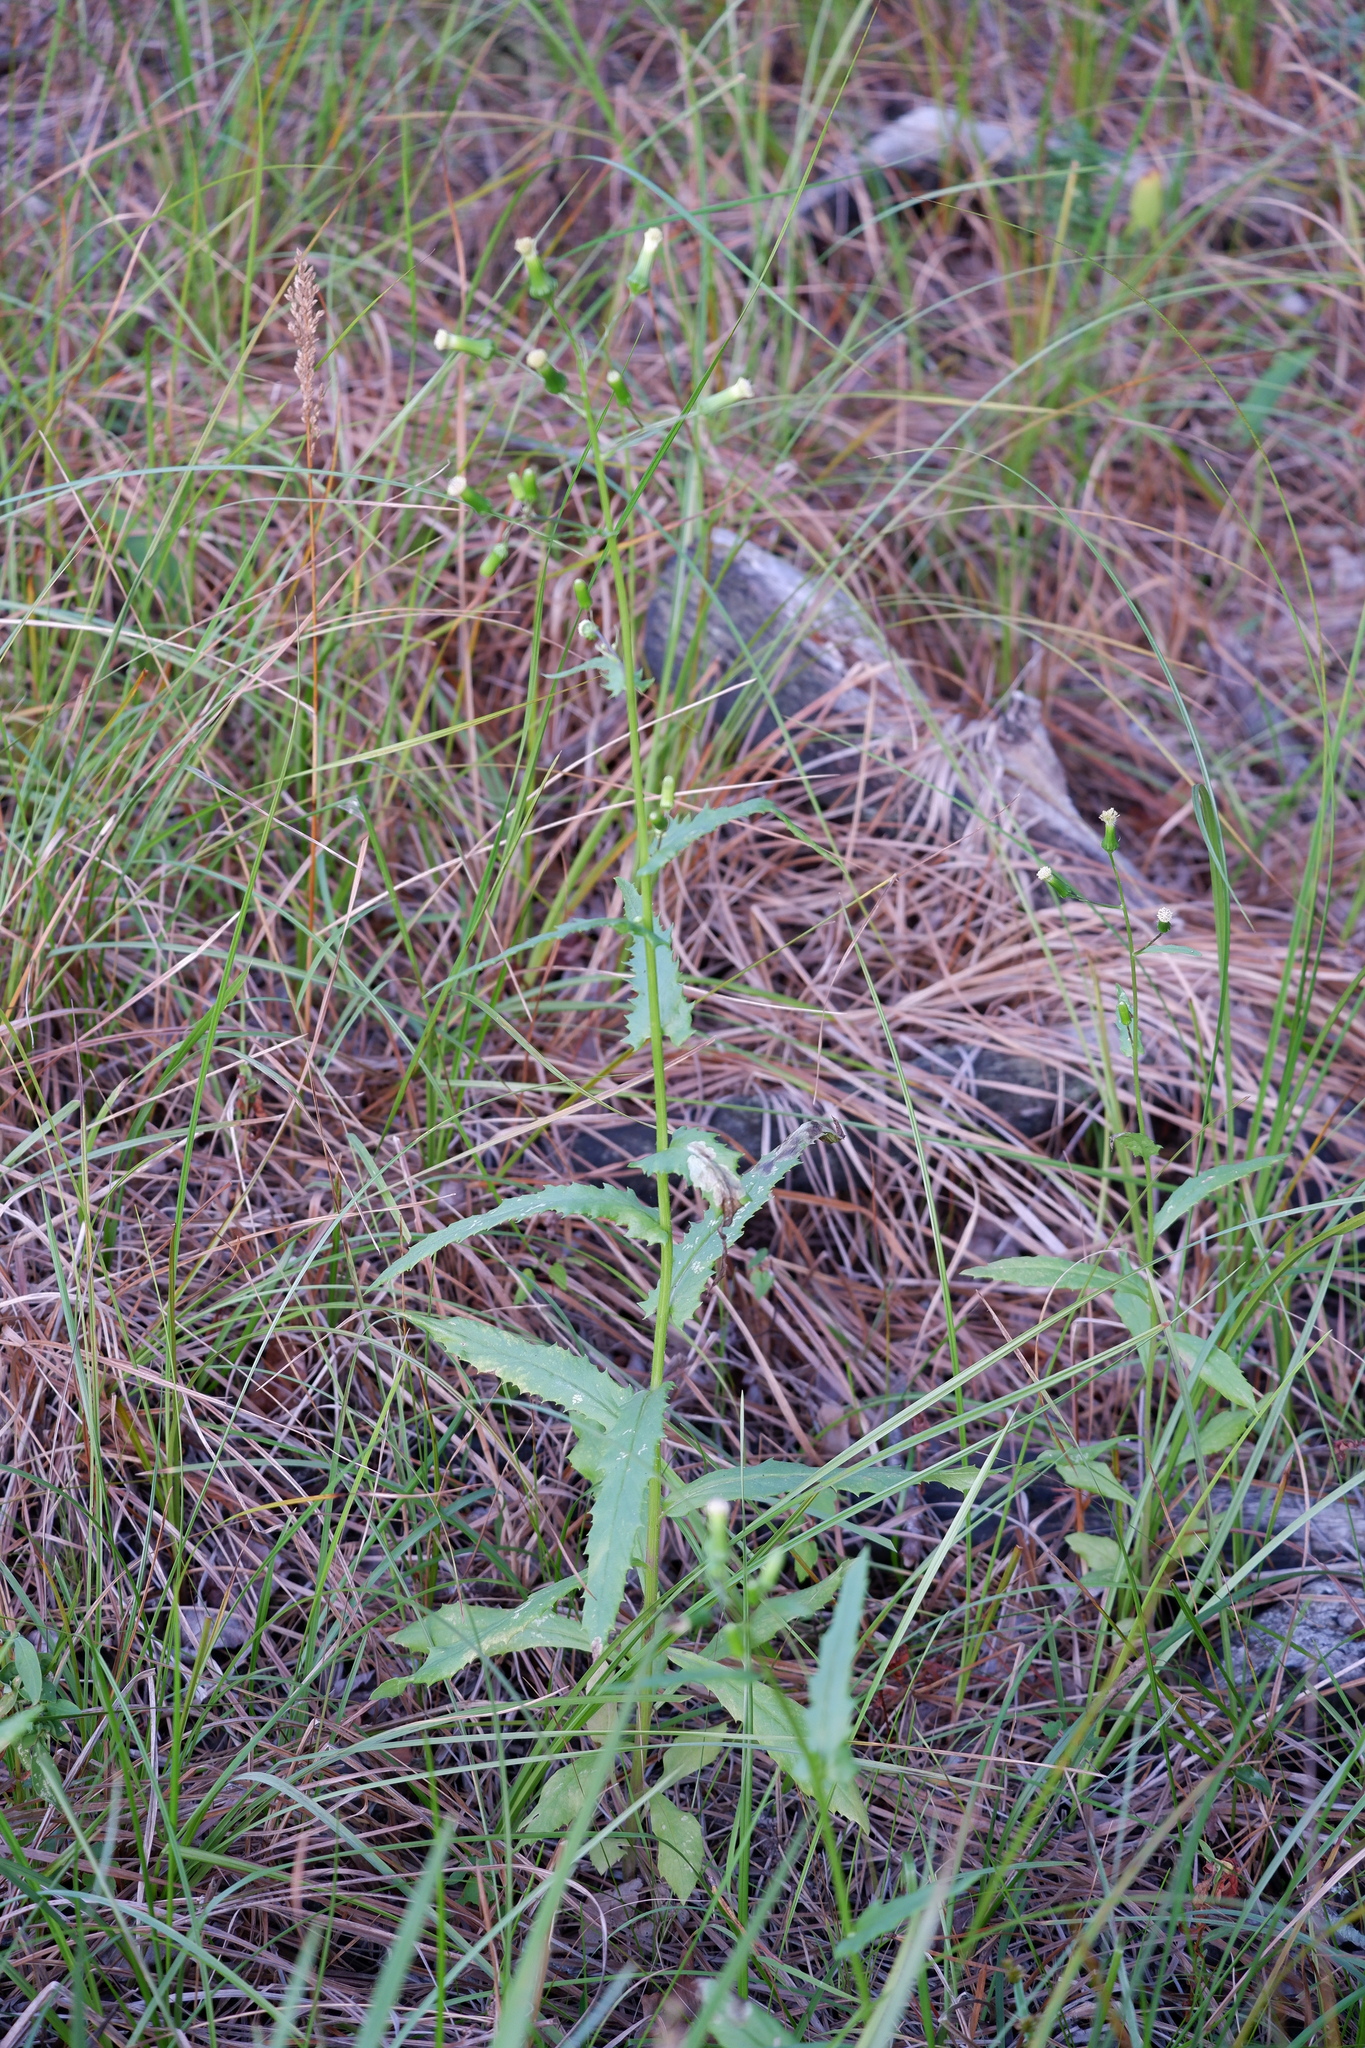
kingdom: Plantae
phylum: Tracheophyta
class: Magnoliopsida
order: Asterales
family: Asteraceae
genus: Erechtites
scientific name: Erechtites hieraciifolius
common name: American burnweed
